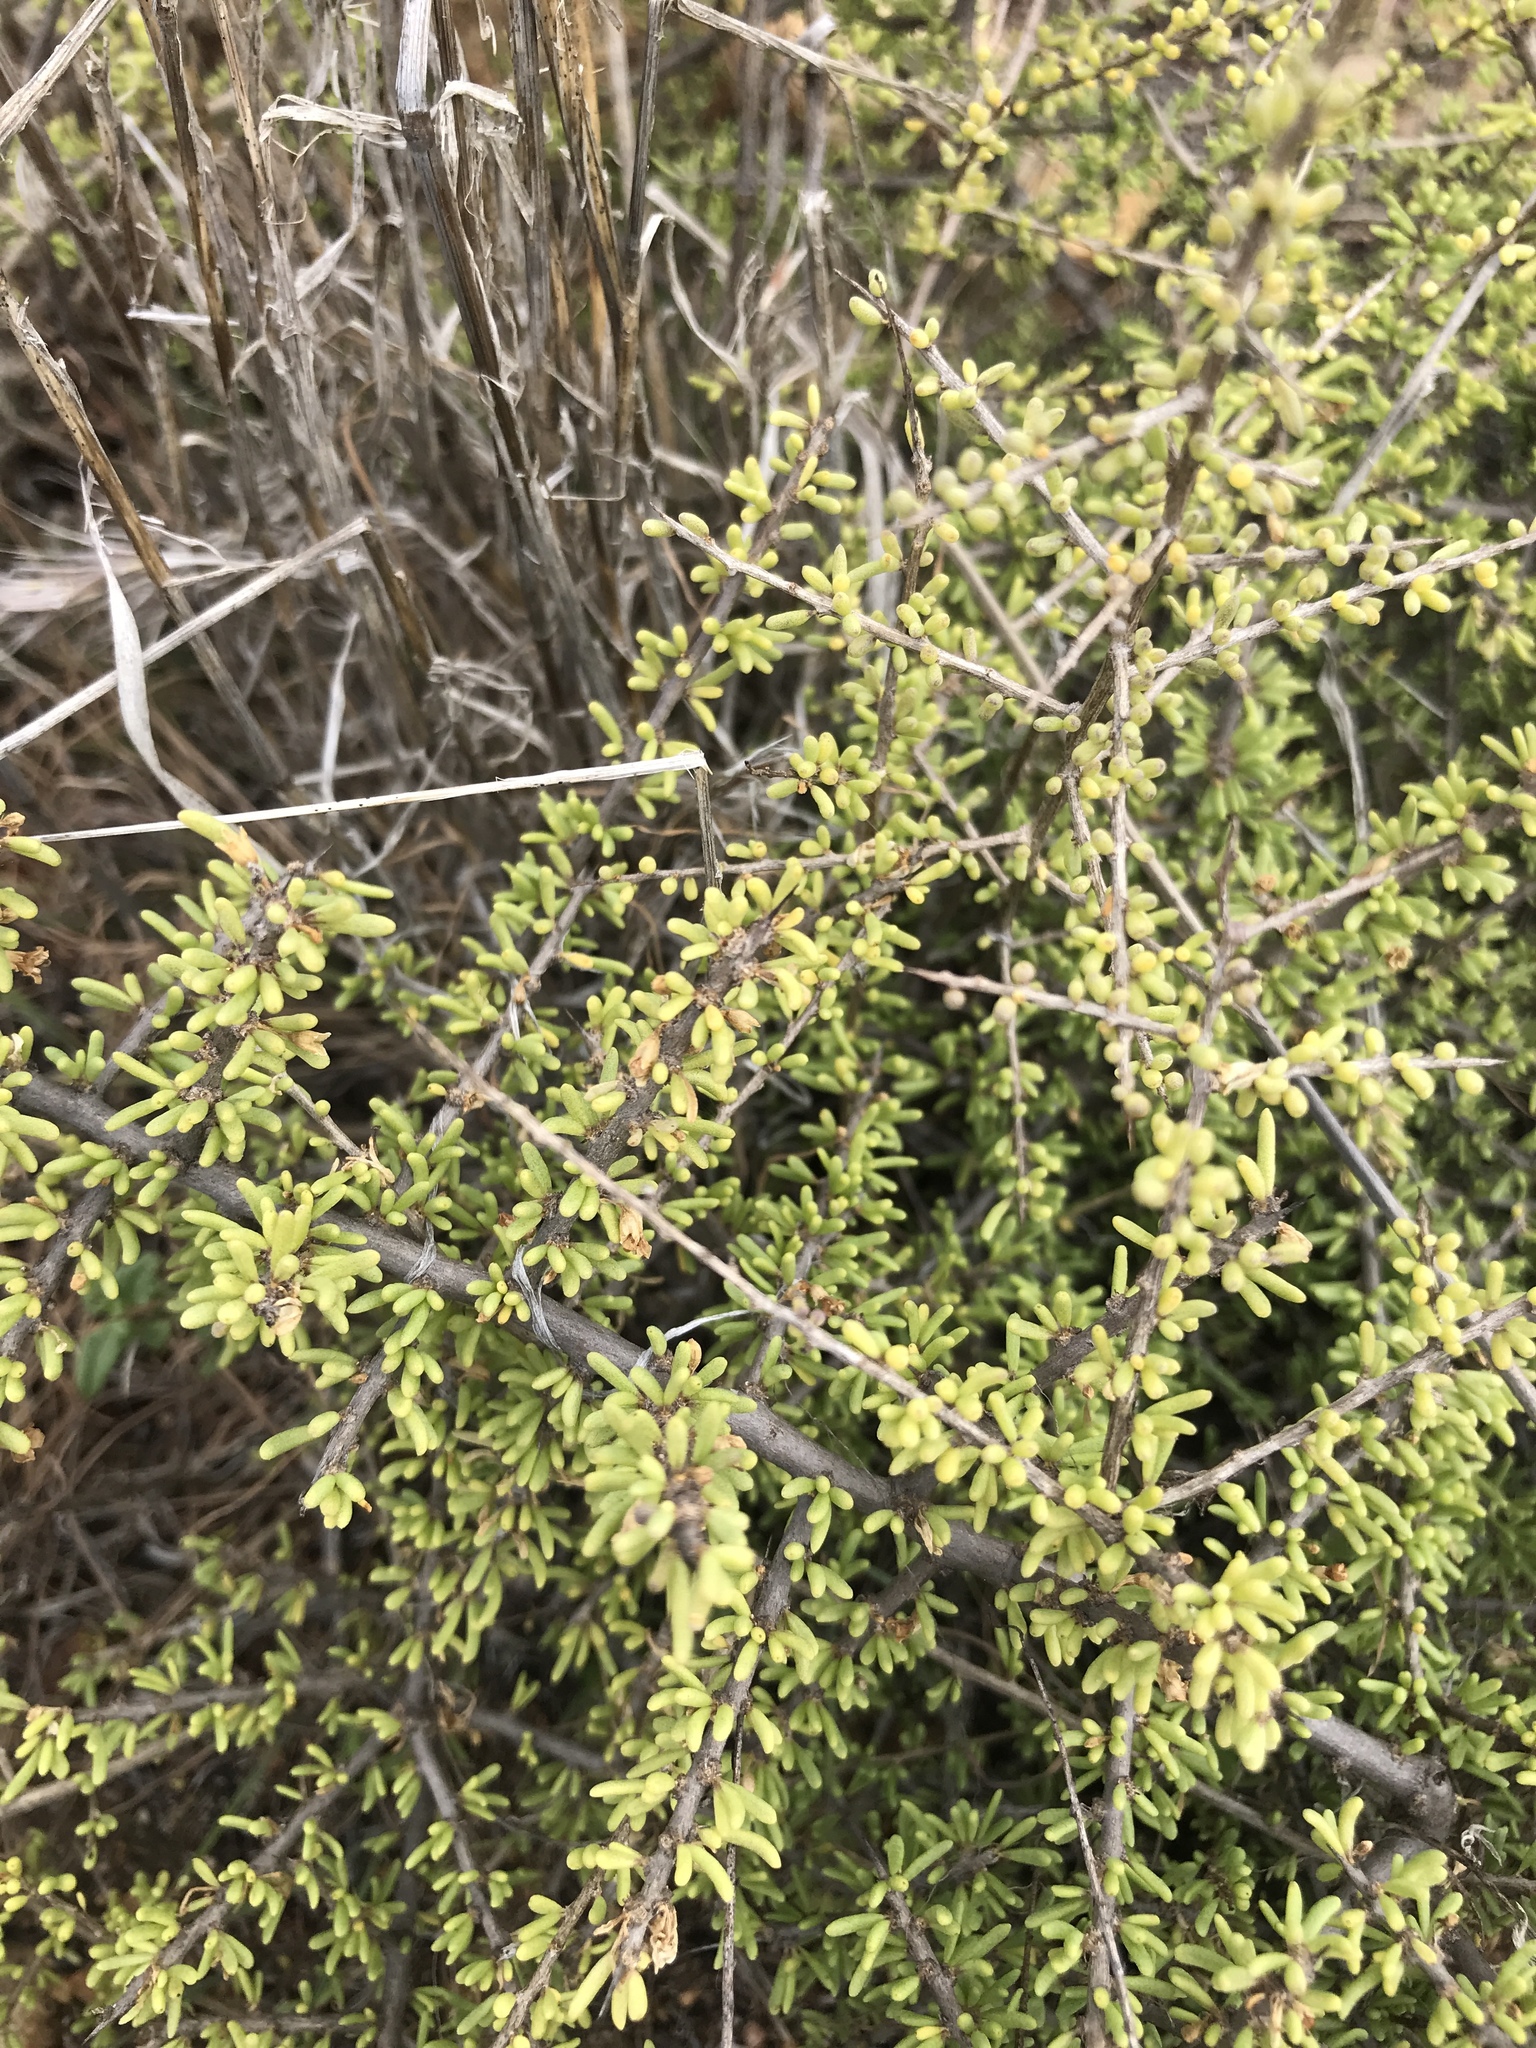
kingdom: Plantae
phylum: Tracheophyta
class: Magnoliopsida
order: Solanales
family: Solanaceae
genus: Lycium
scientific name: Lycium californicum
